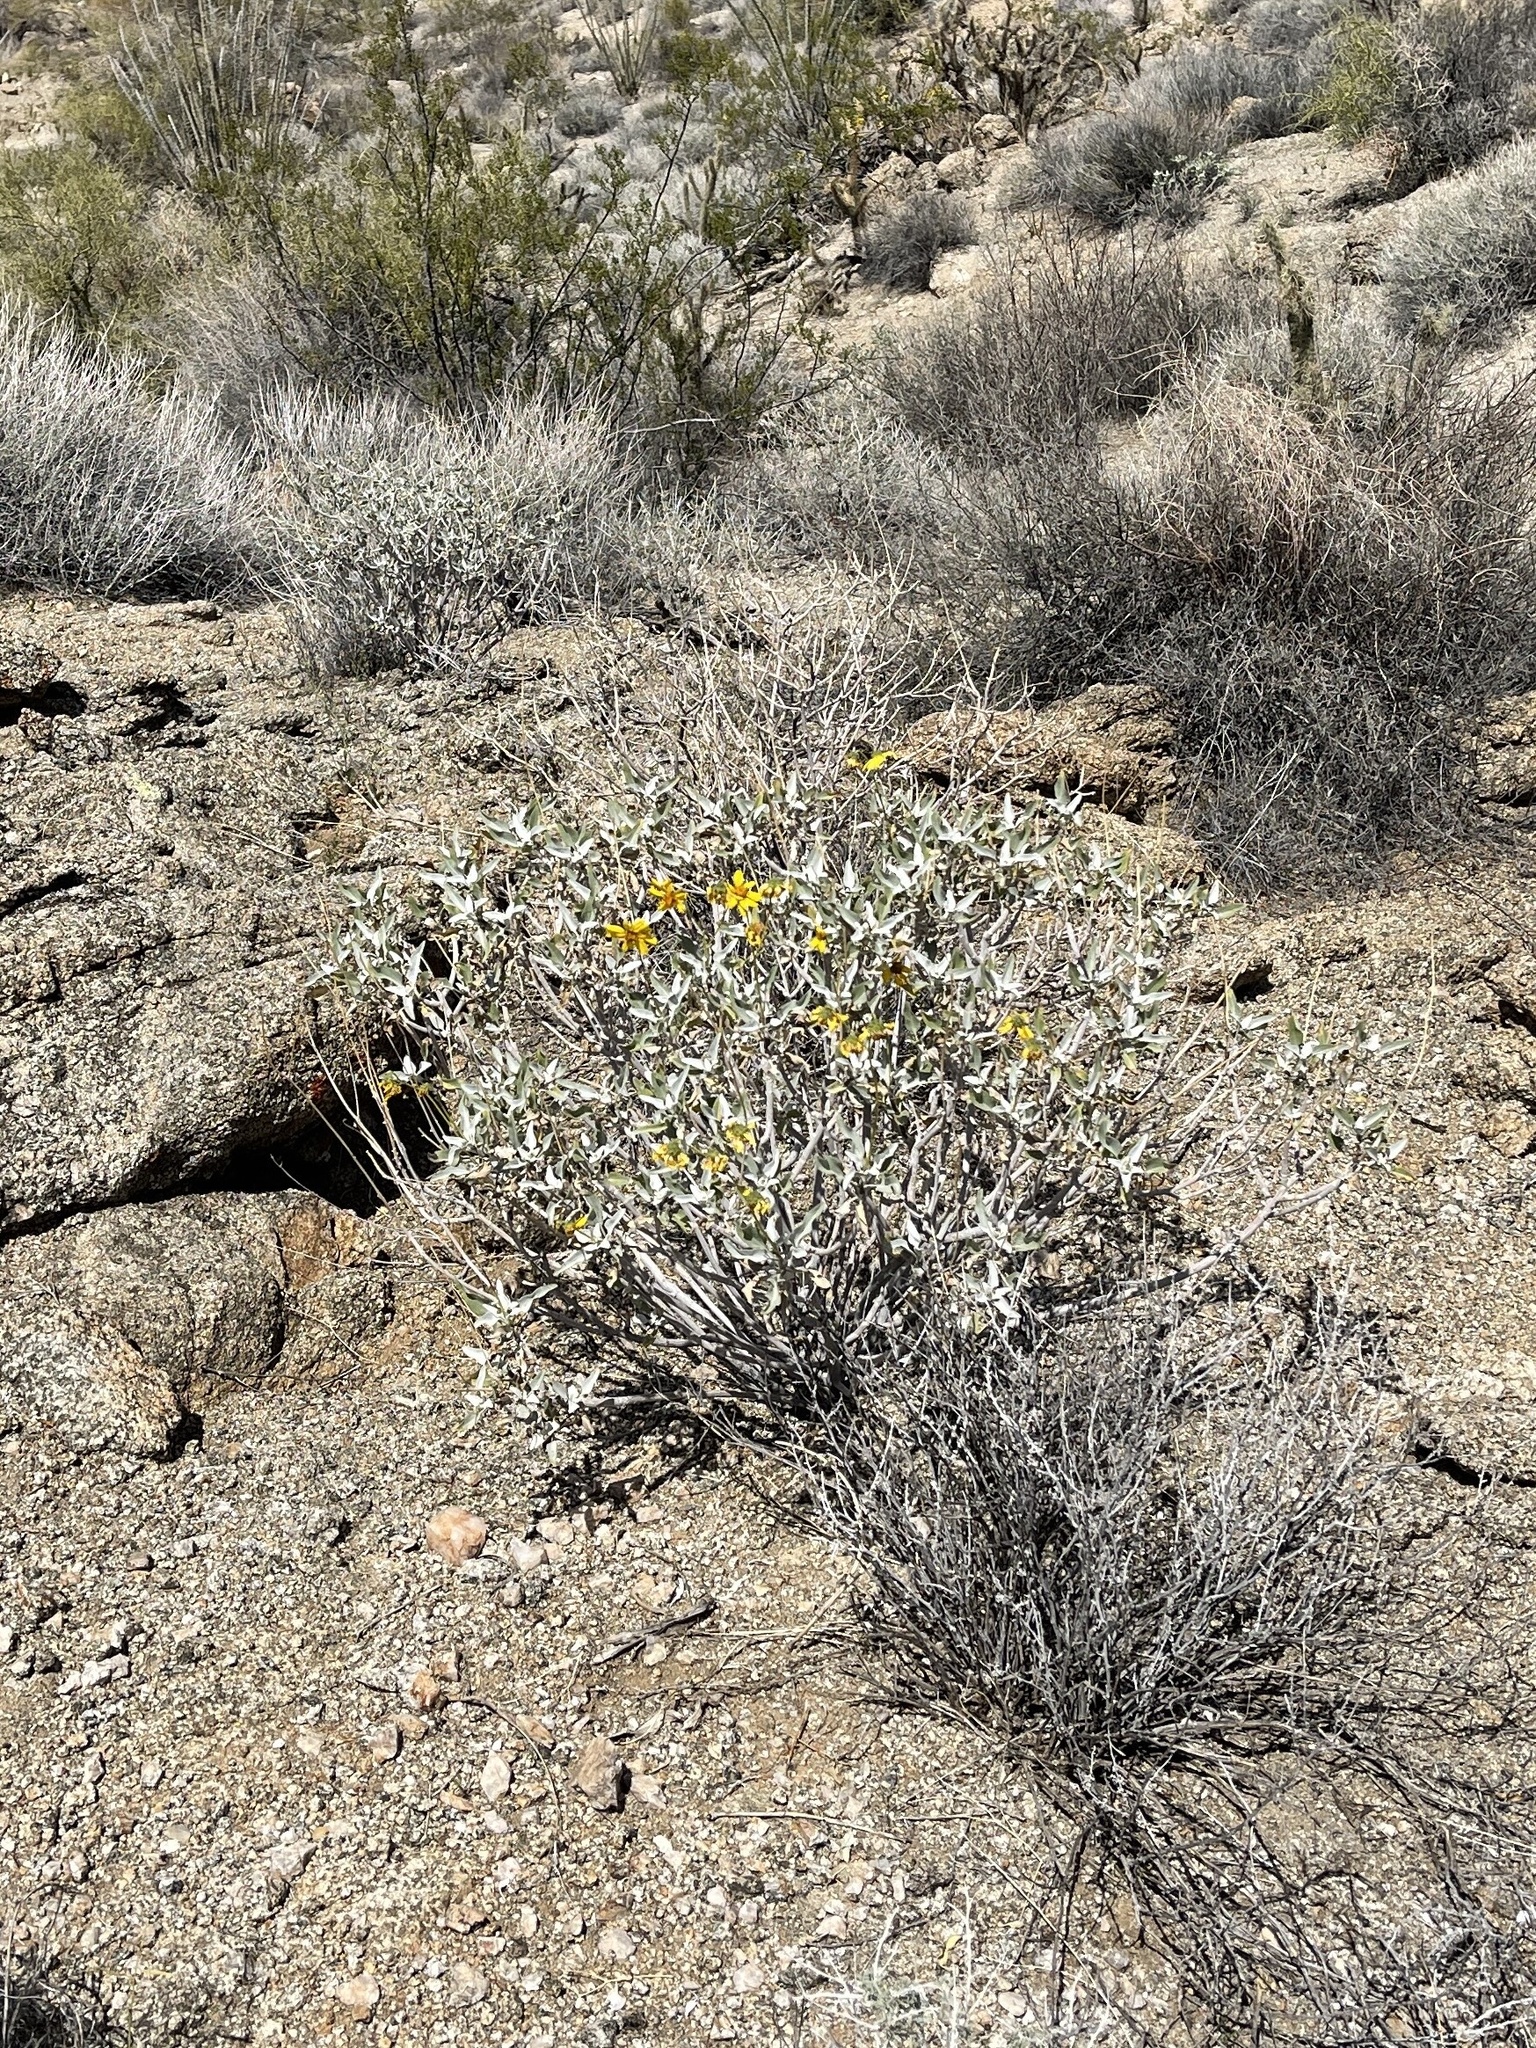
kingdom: Plantae
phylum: Tracheophyta
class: Magnoliopsida
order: Asterales
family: Asteraceae
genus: Encelia
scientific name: Encelia farinosa
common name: Brittlebush
